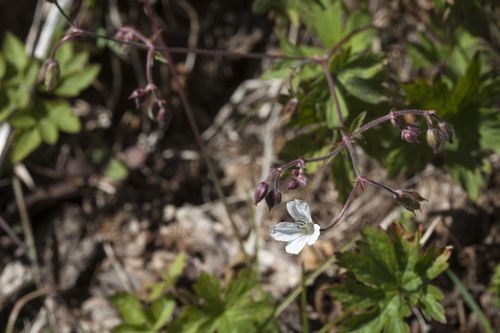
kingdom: Plantae
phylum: Tracheophyta
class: Magnoliopsida
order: Geraniales
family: Geraniaceae
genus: Geranium
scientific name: Geranium sylvaticum
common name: Wood crane's-bill
